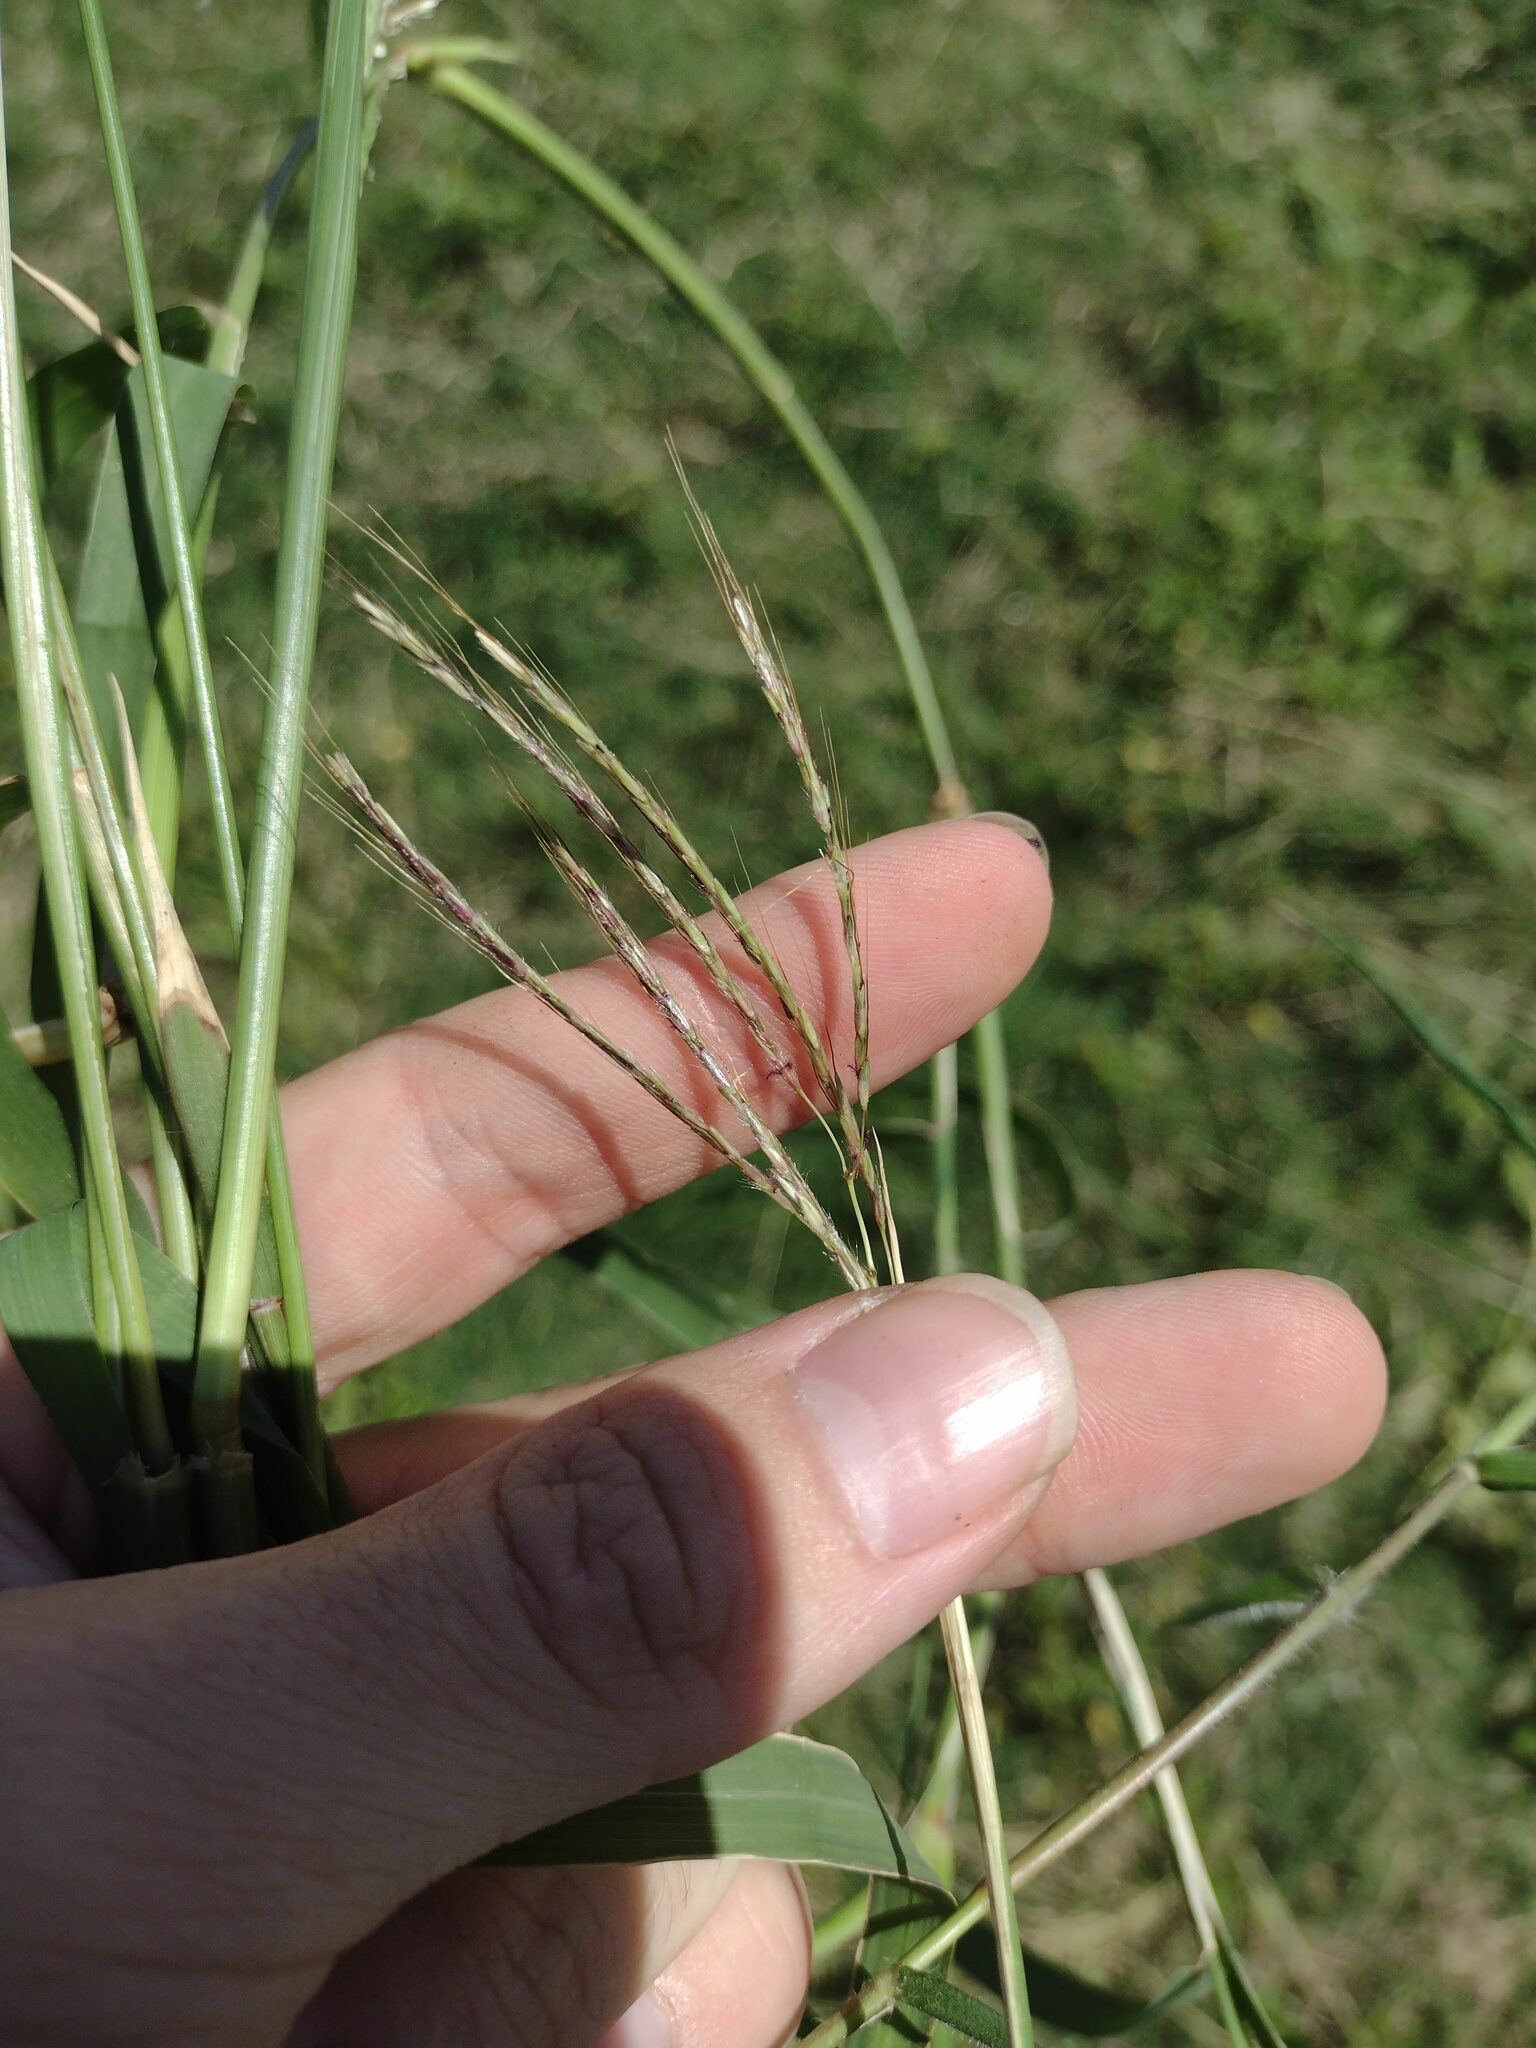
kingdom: Plantae
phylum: Tracheophyta
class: Liliopsida
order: Poales
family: Poaceae
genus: Dichanthium
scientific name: Dichanthium annulatum
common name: Kleberg's bluestem
